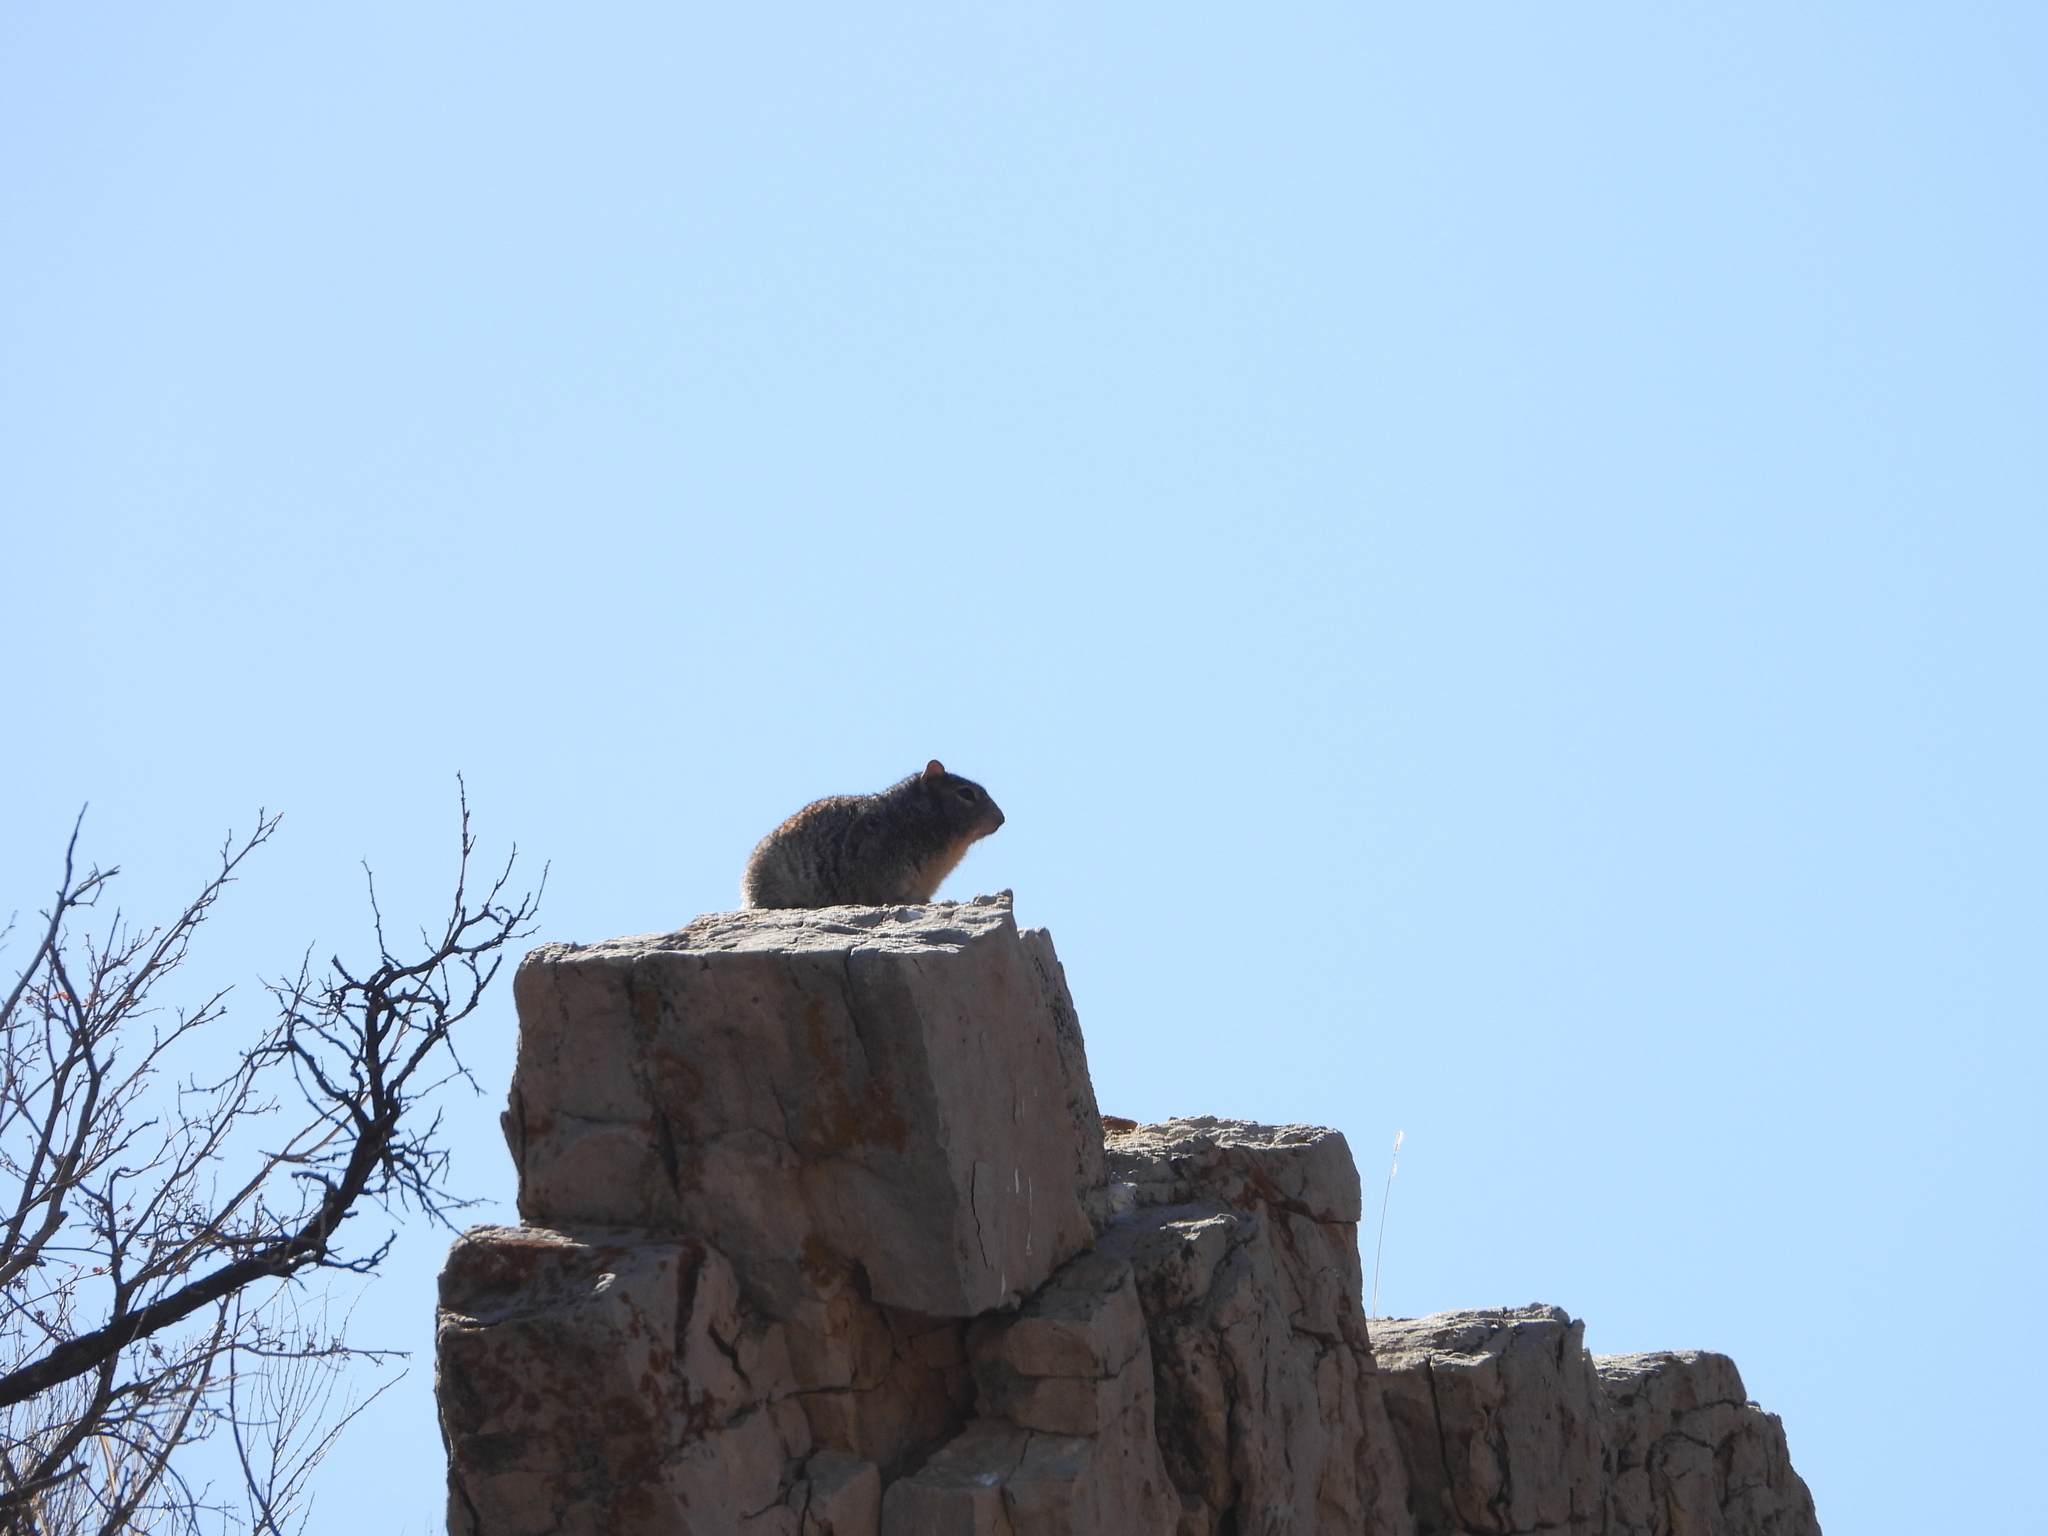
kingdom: Animalia
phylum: Chordata
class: Mammalia
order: Rodentia
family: Sciuridae
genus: Otospermophilus
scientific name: Otospermophilus variegatus
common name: Rock squirrel
